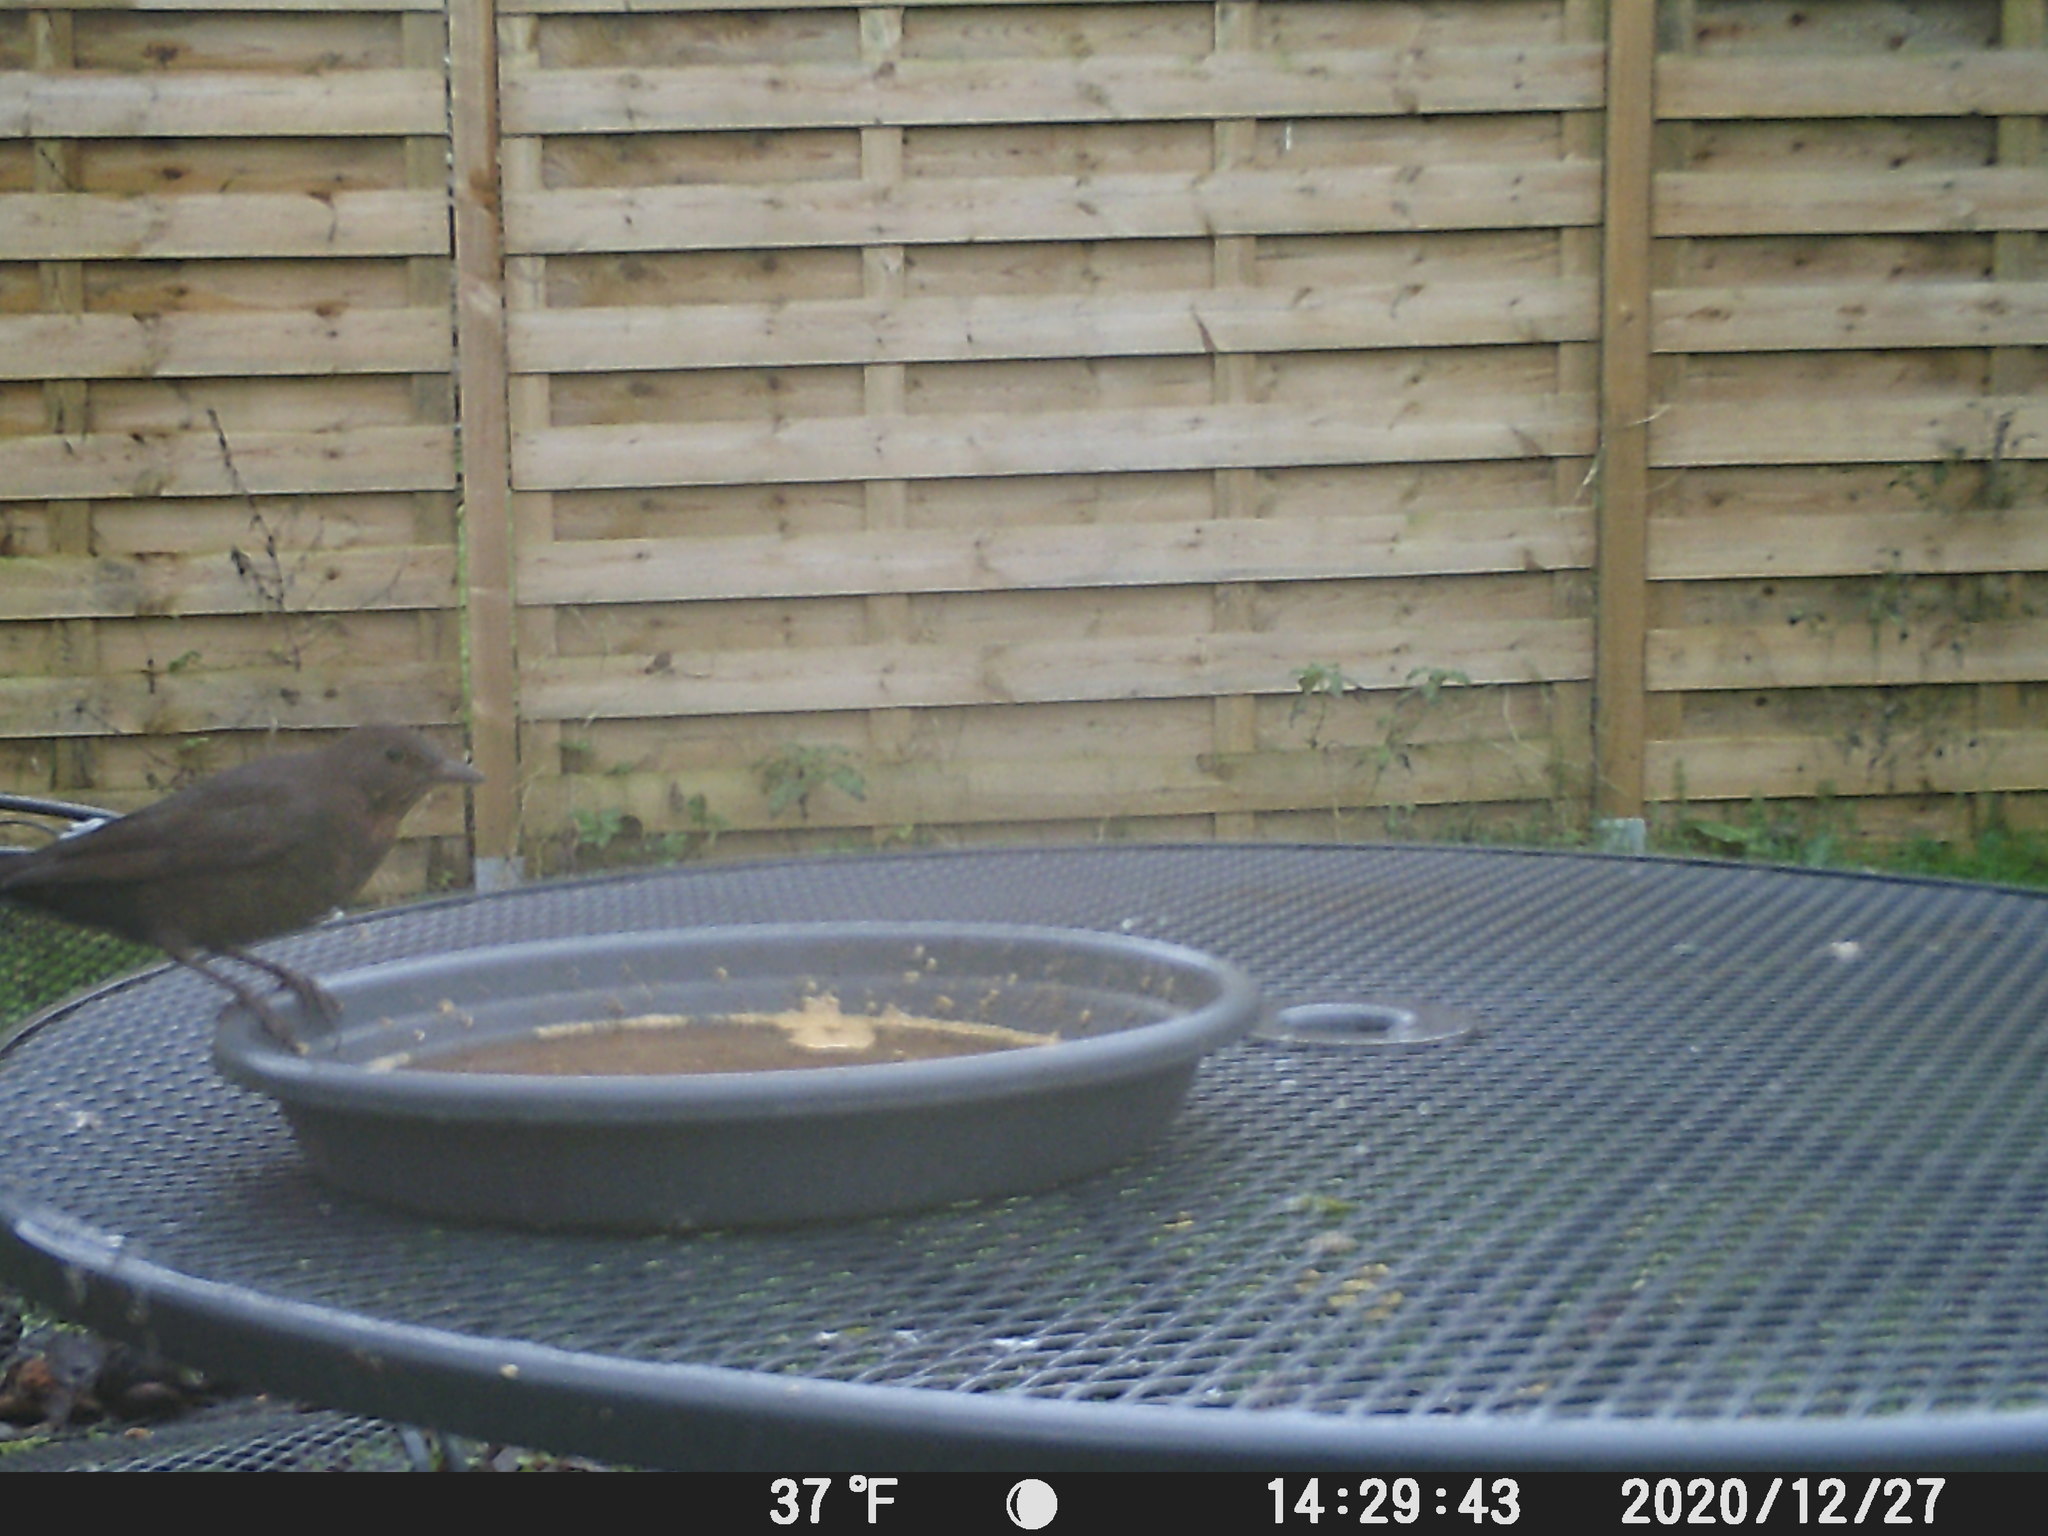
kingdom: Animalia
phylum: Chordata
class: Aves
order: Passeriformes
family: Turdidae
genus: Turdus
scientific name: Turdus merula
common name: Common blackbird
